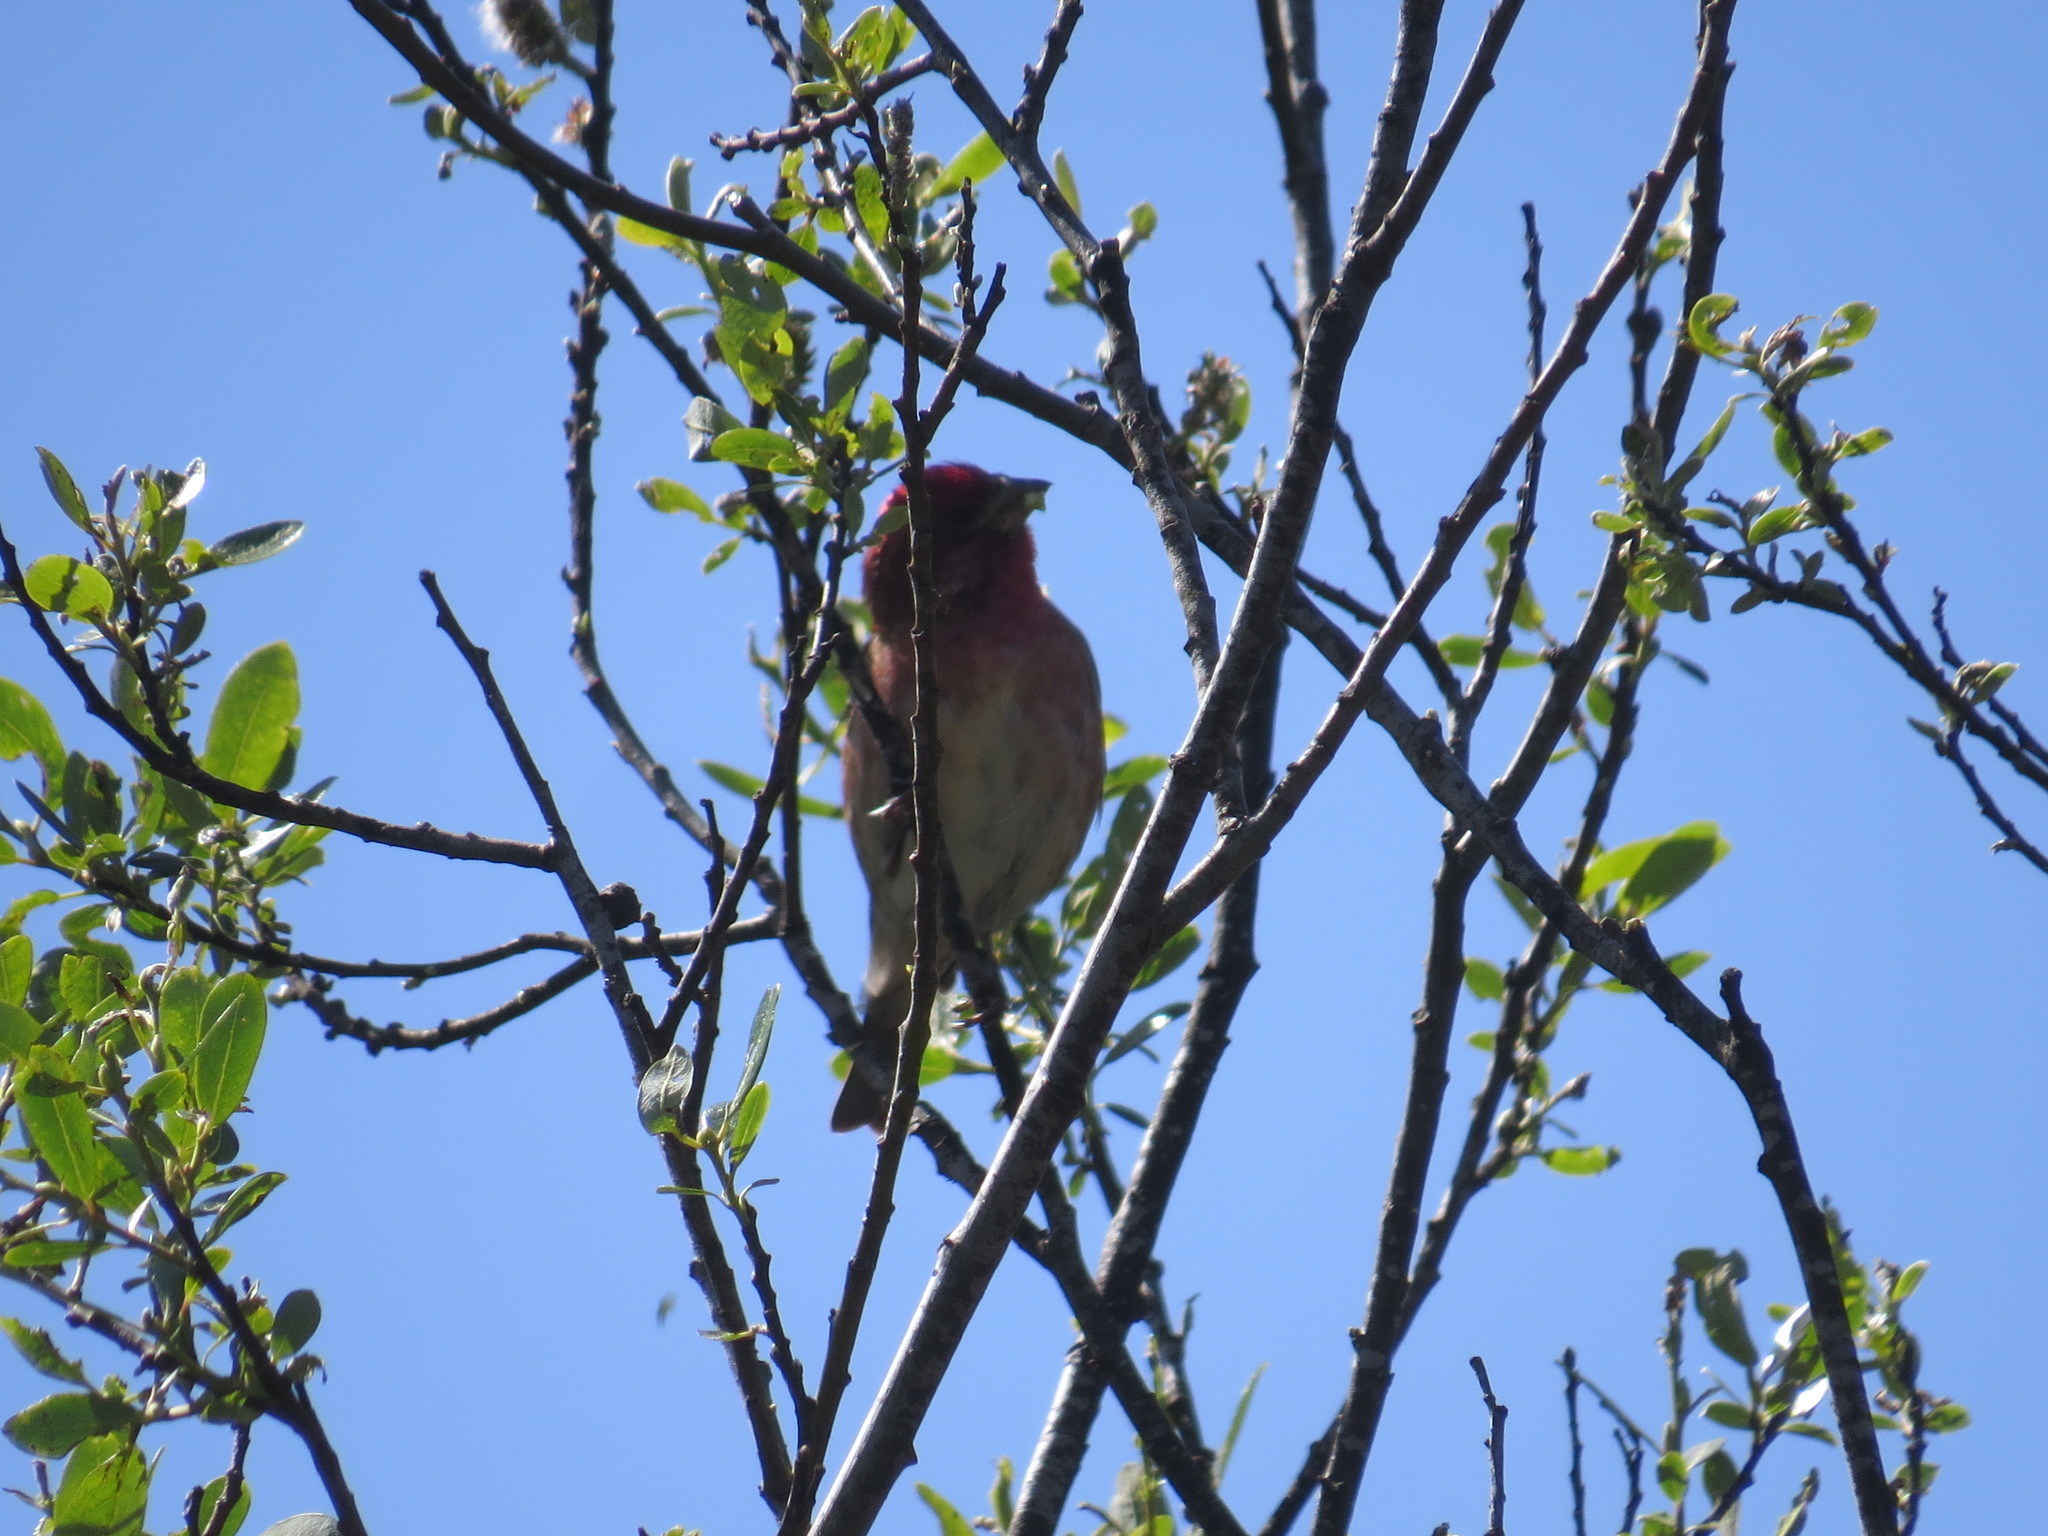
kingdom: Animalia
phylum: Chordata
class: Aves
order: Passeriformes
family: Fringillidae
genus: Haemorhous
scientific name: Haemorhous purpureus
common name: Purple finch
